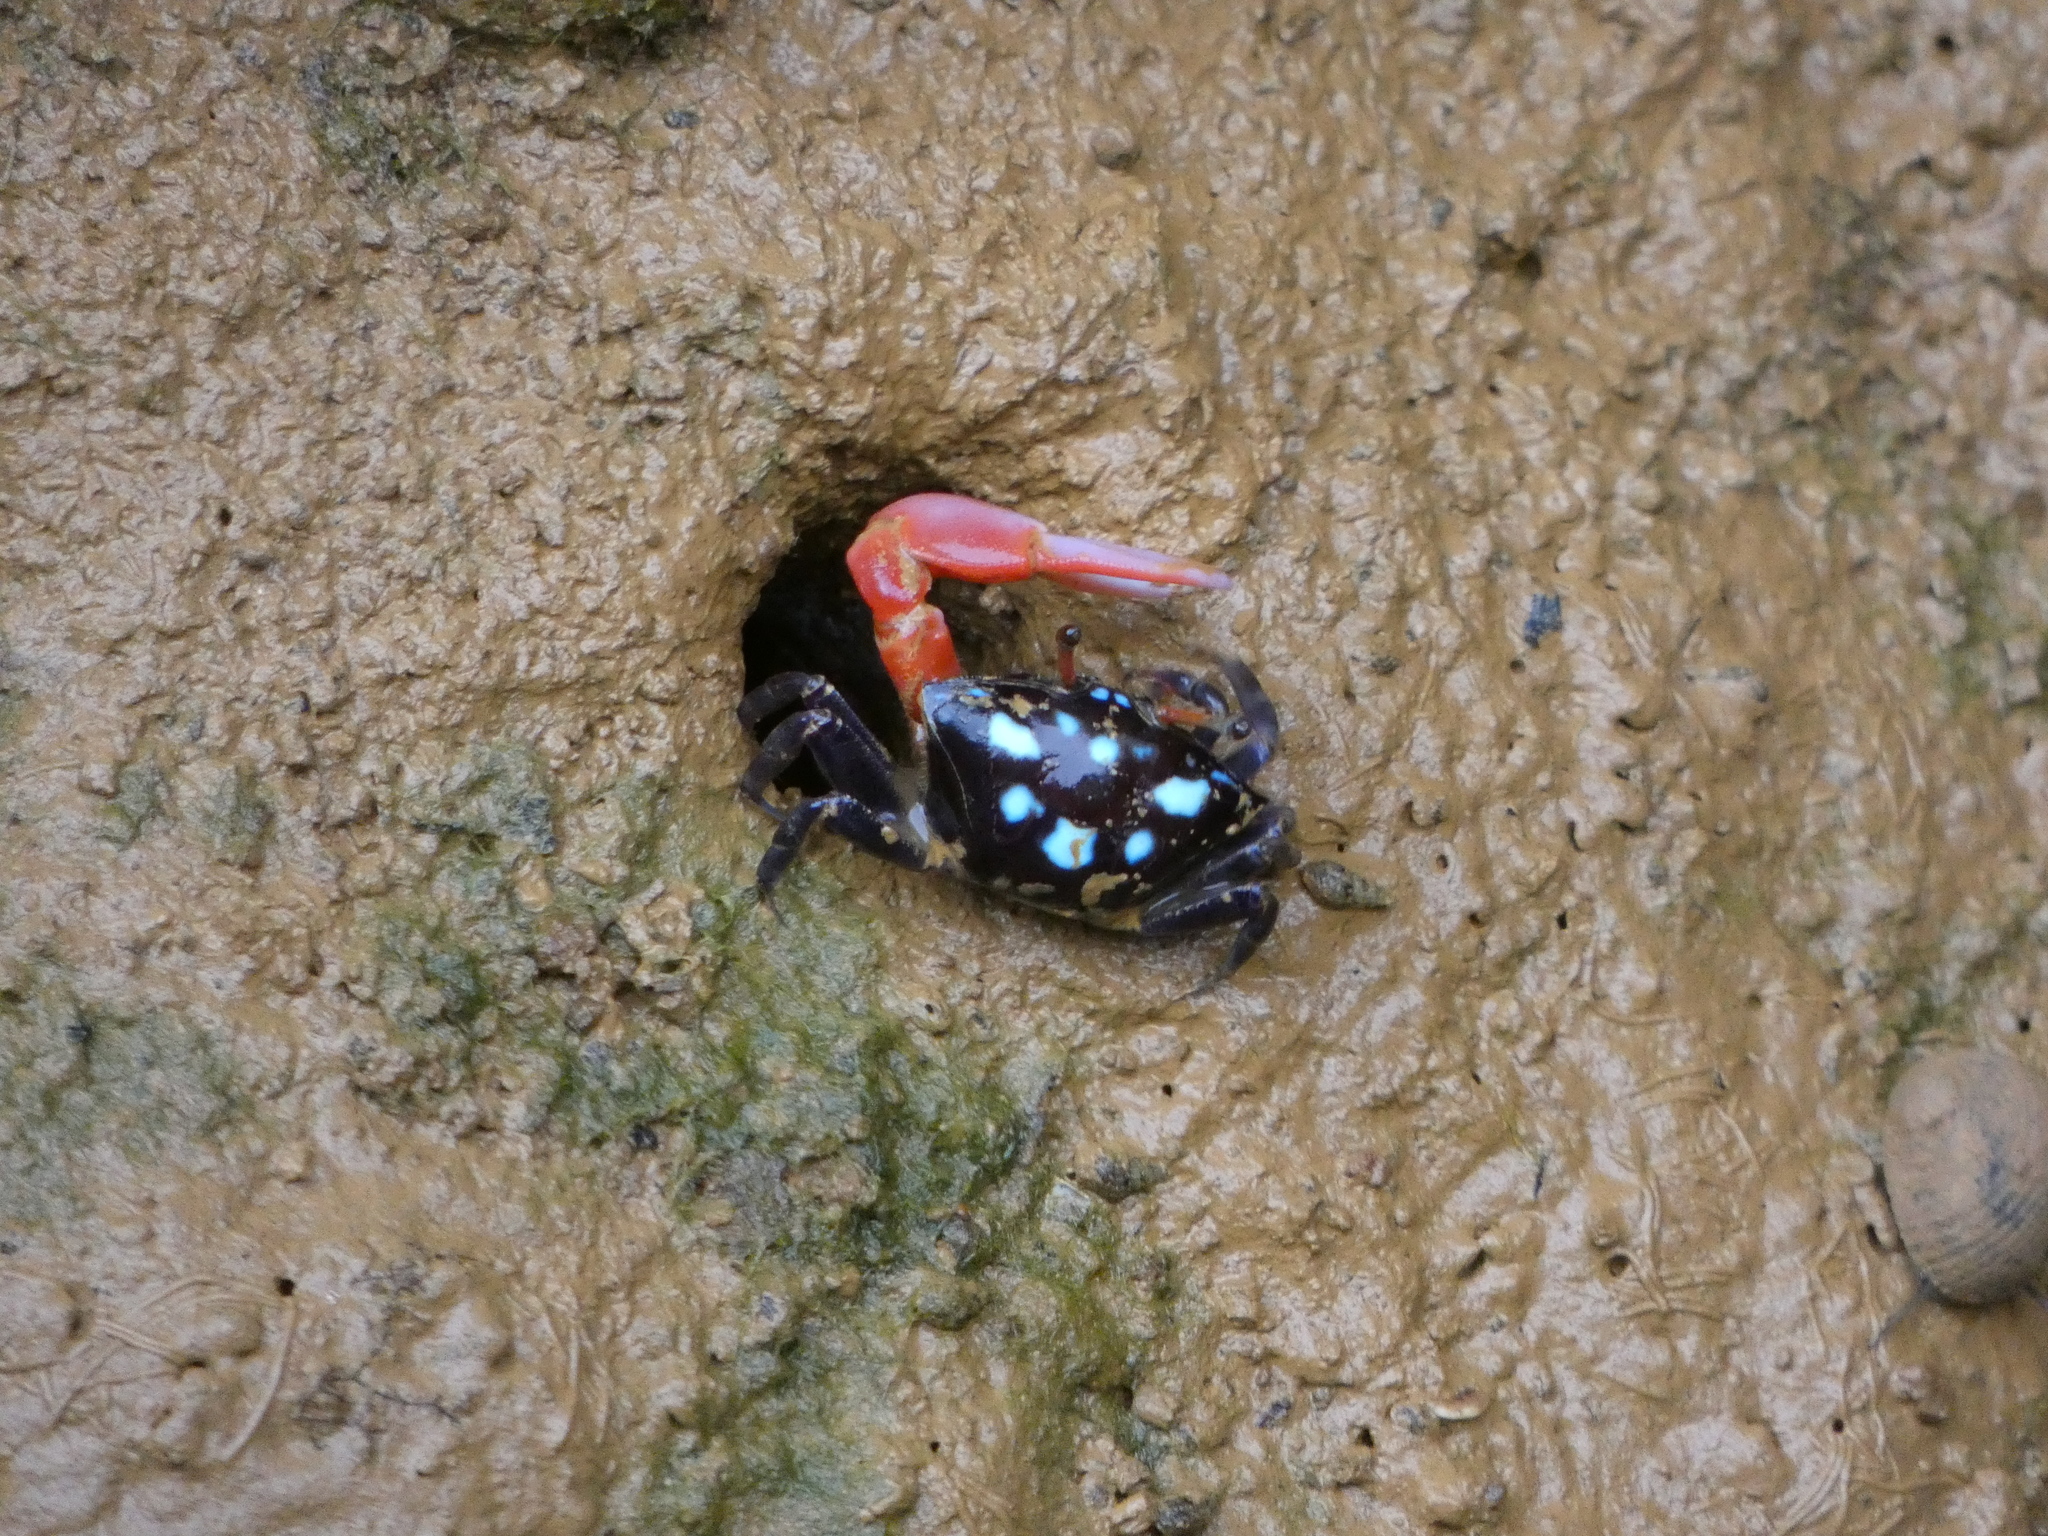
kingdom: Animalia
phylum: Arthropoda
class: Malacostraca
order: Decapoda
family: Ocypodidae
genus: Paraleptuca
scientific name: Paraleptuca crassipes
